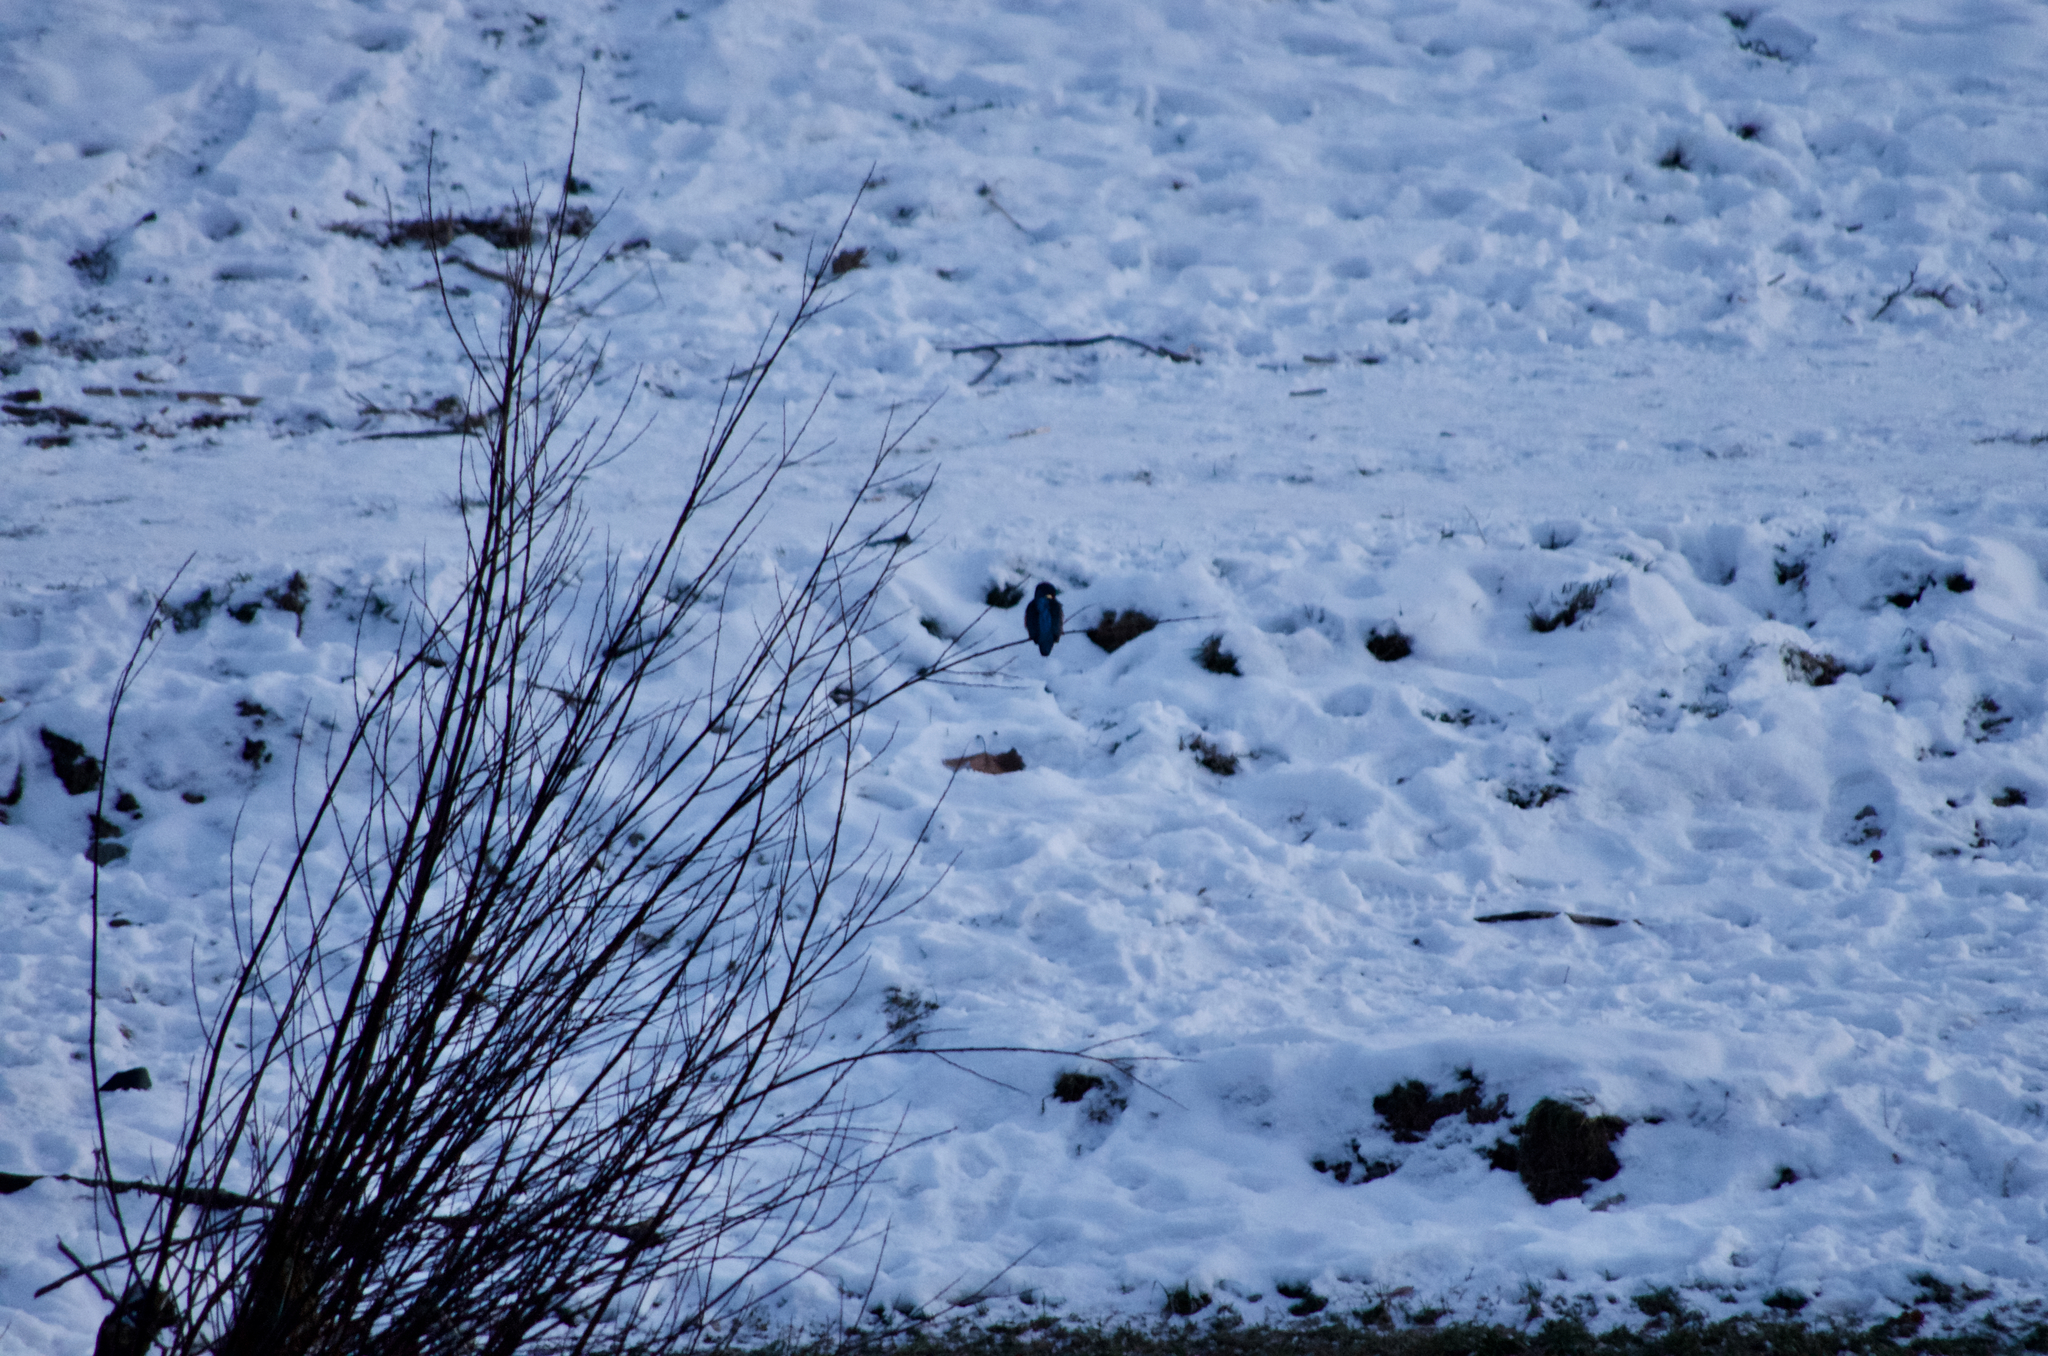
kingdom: Animalia
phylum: Chordata
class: Aves
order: Coraciiformes
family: Alcedinidae
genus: Alcedo
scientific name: Alcedo atthis
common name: Common kingfisher
